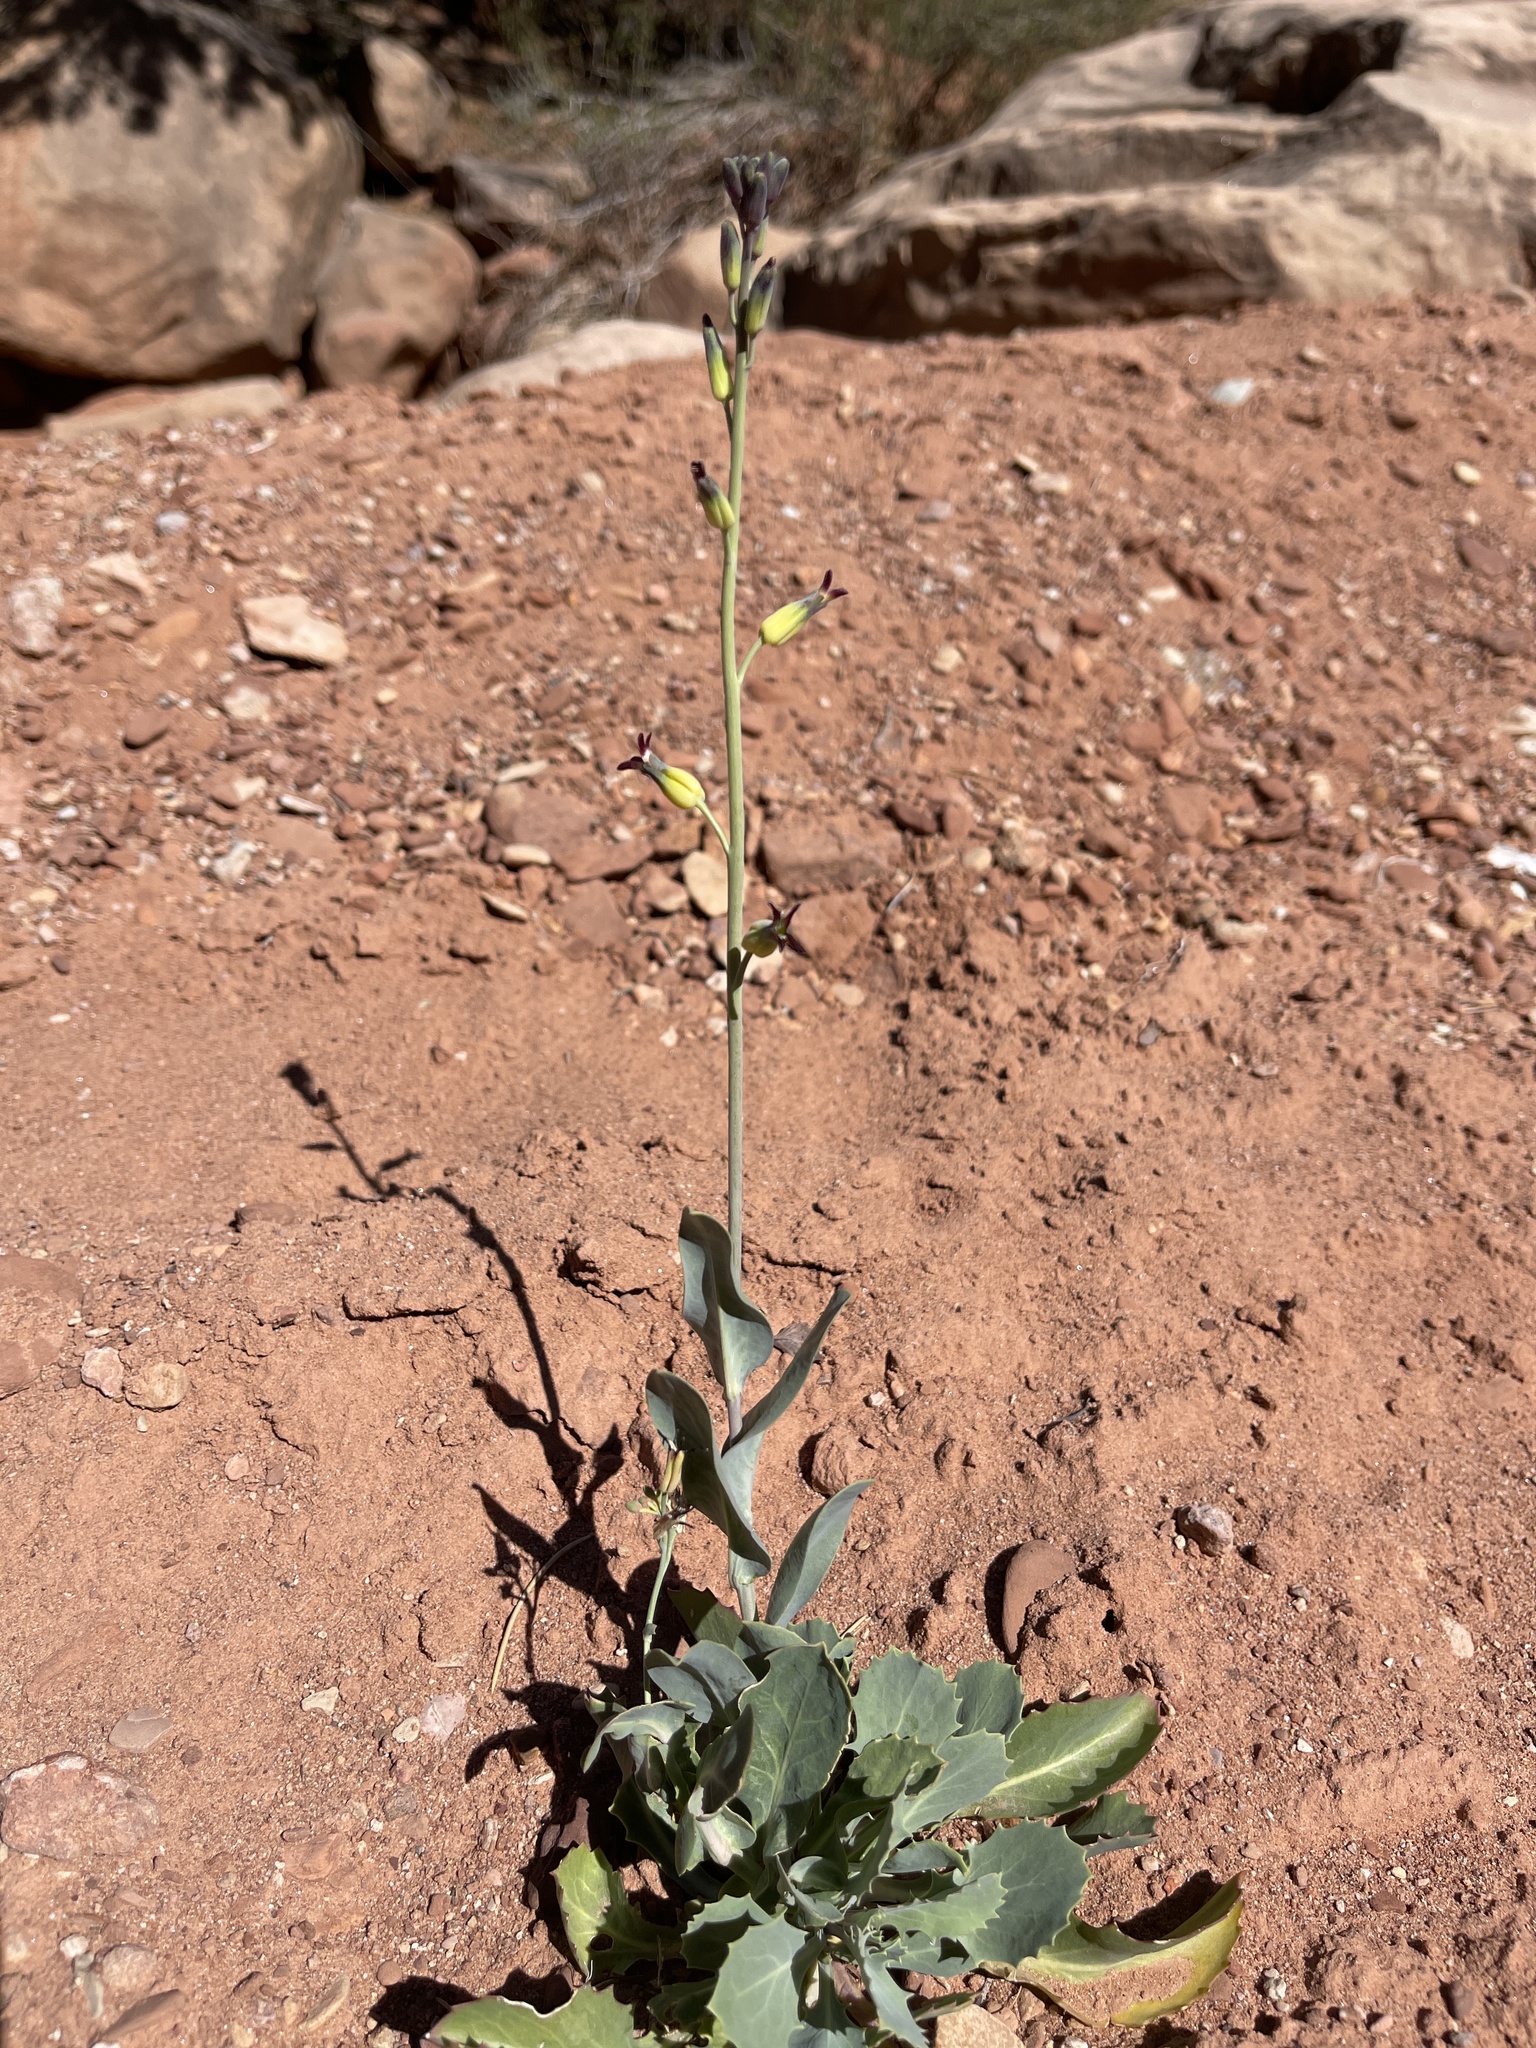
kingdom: Plantae
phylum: Tracheophyta
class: Magnoliopsida
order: Brassicales
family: Brassicaceae
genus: Streptanthus
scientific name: Streptanthus cordatus
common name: Heart-leaf jewel-flower
